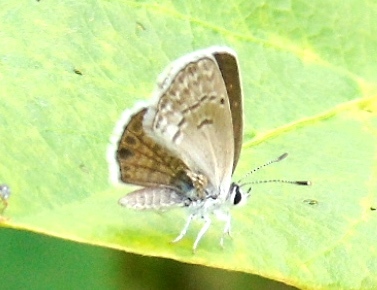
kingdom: Animalia
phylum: Arthropoda
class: Insecta
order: Lepidoptera
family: Lycaenidae
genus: Hemiargus
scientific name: Hemiargus ceraunus
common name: Ceraunus blue
